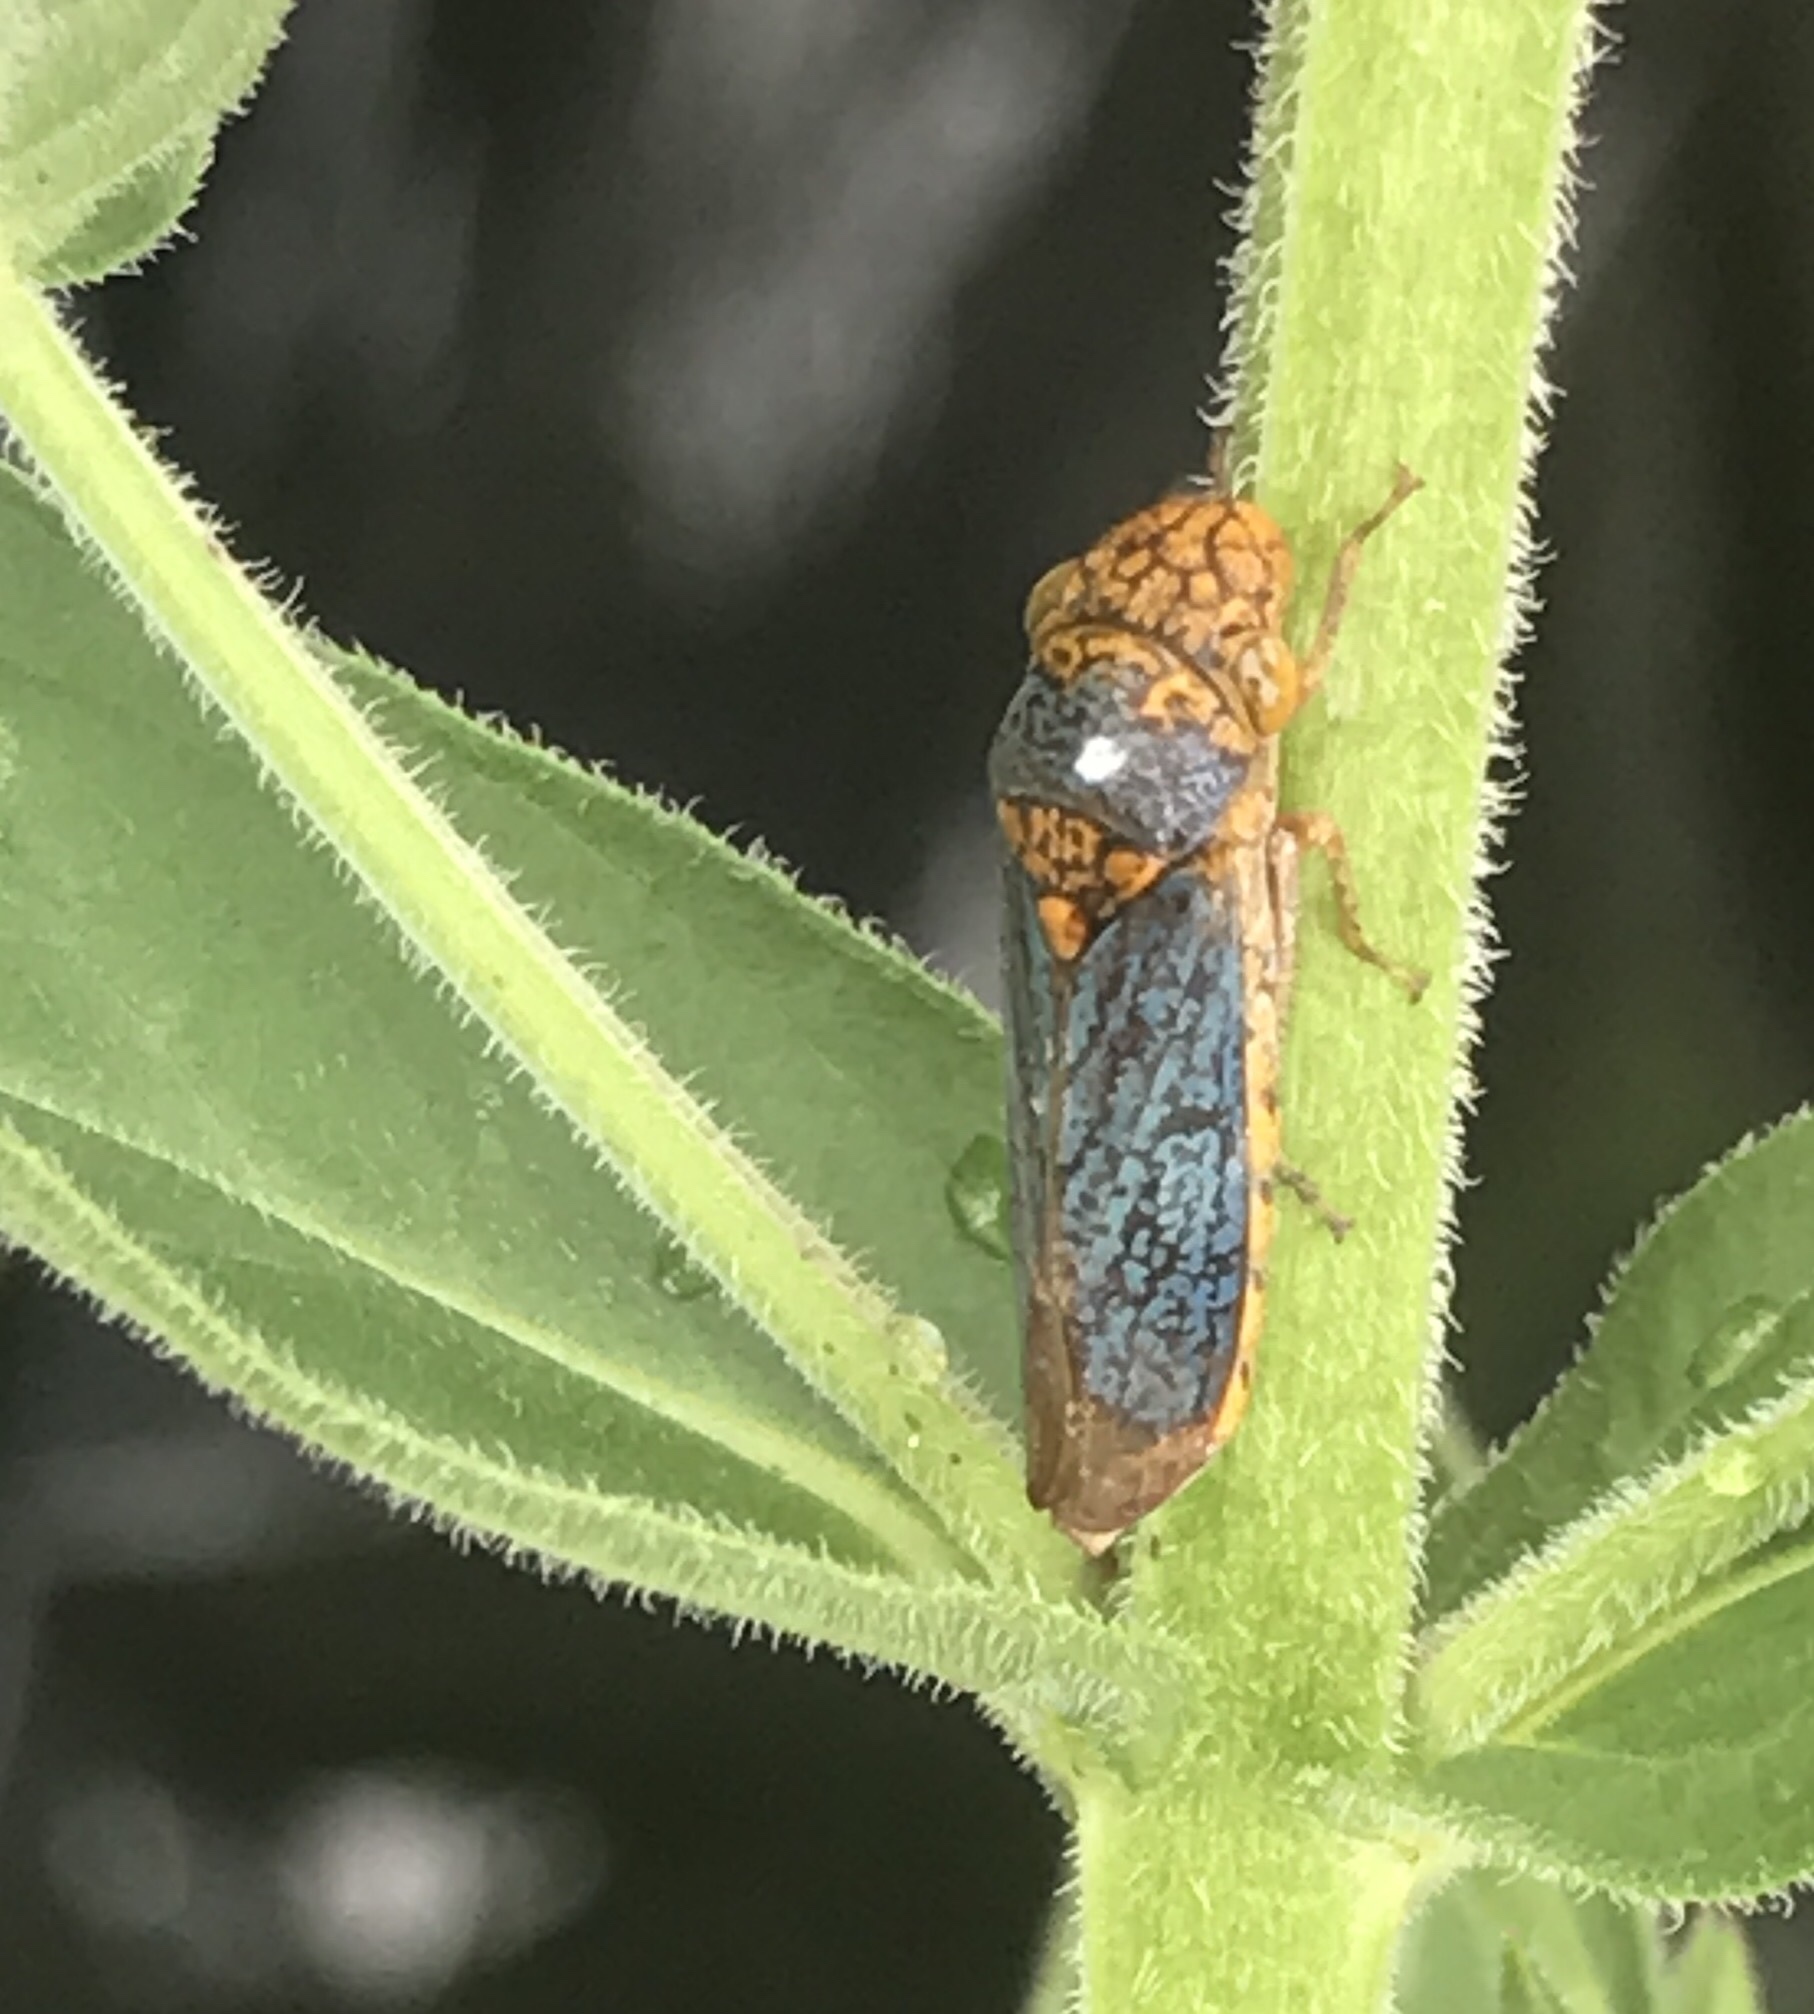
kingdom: Animalia
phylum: Arthropoda
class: Insecta
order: Hemiptera
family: Cicadellidae
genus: Oncometopia
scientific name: Oncometopia orbona
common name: Broad-headed sharpshooter
